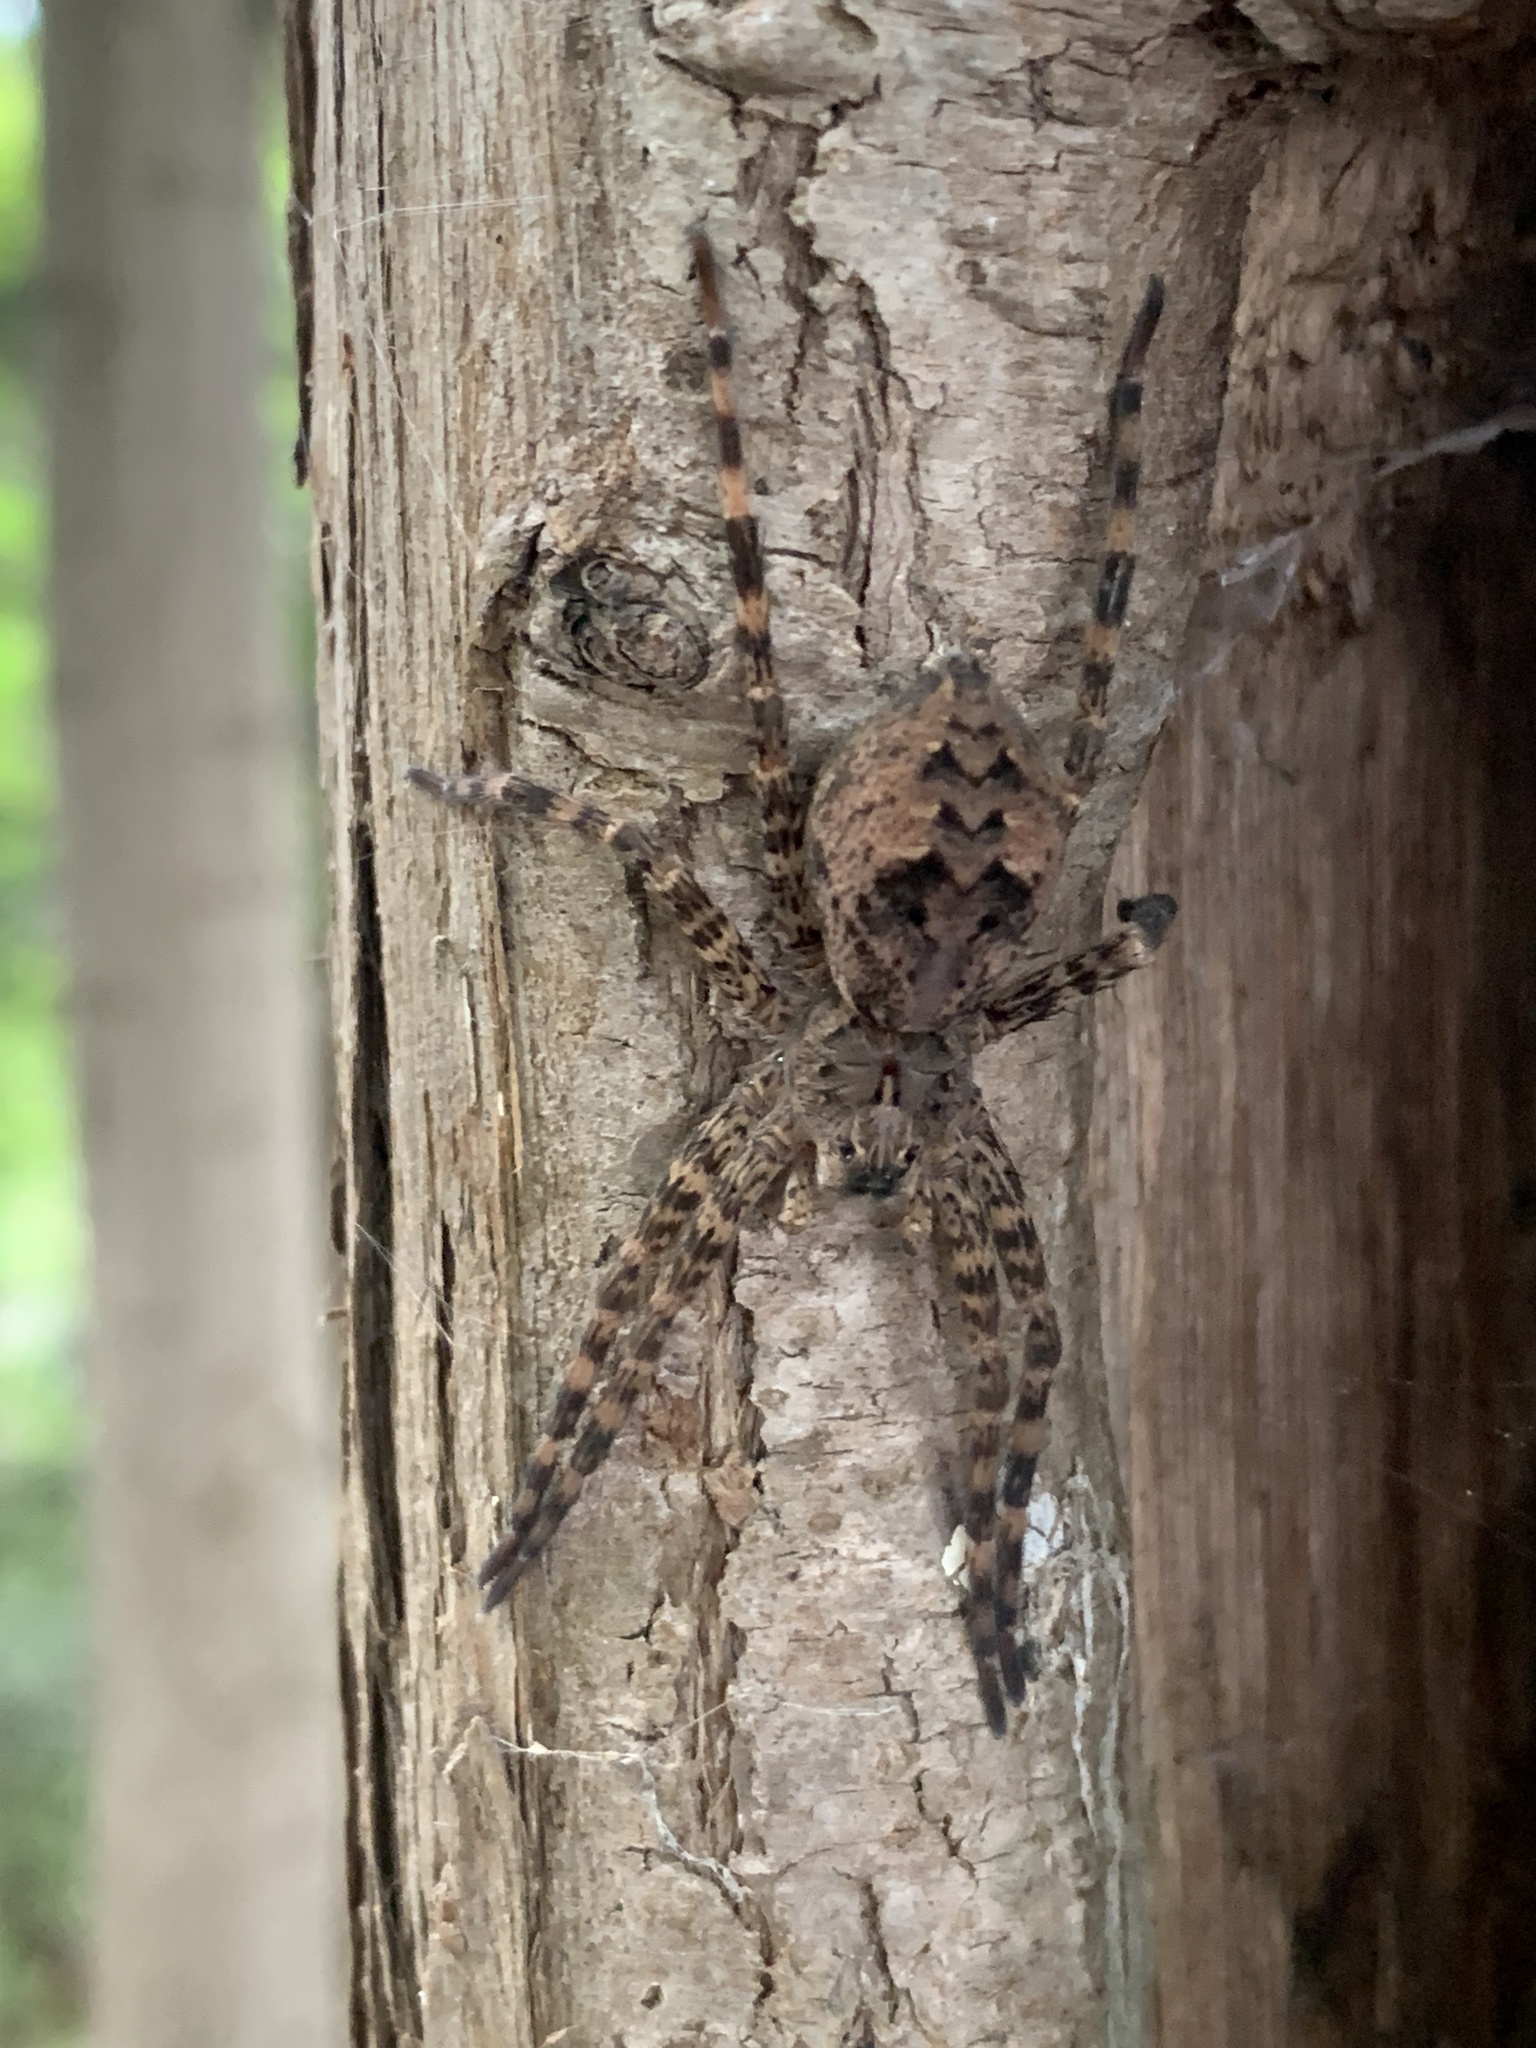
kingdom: Animalia
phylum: Arthropoda
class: Arachnida
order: Araneae
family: Pisauridae
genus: Dolomedes
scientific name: Dolomedes tenebrosus
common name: Dark fishing spider
